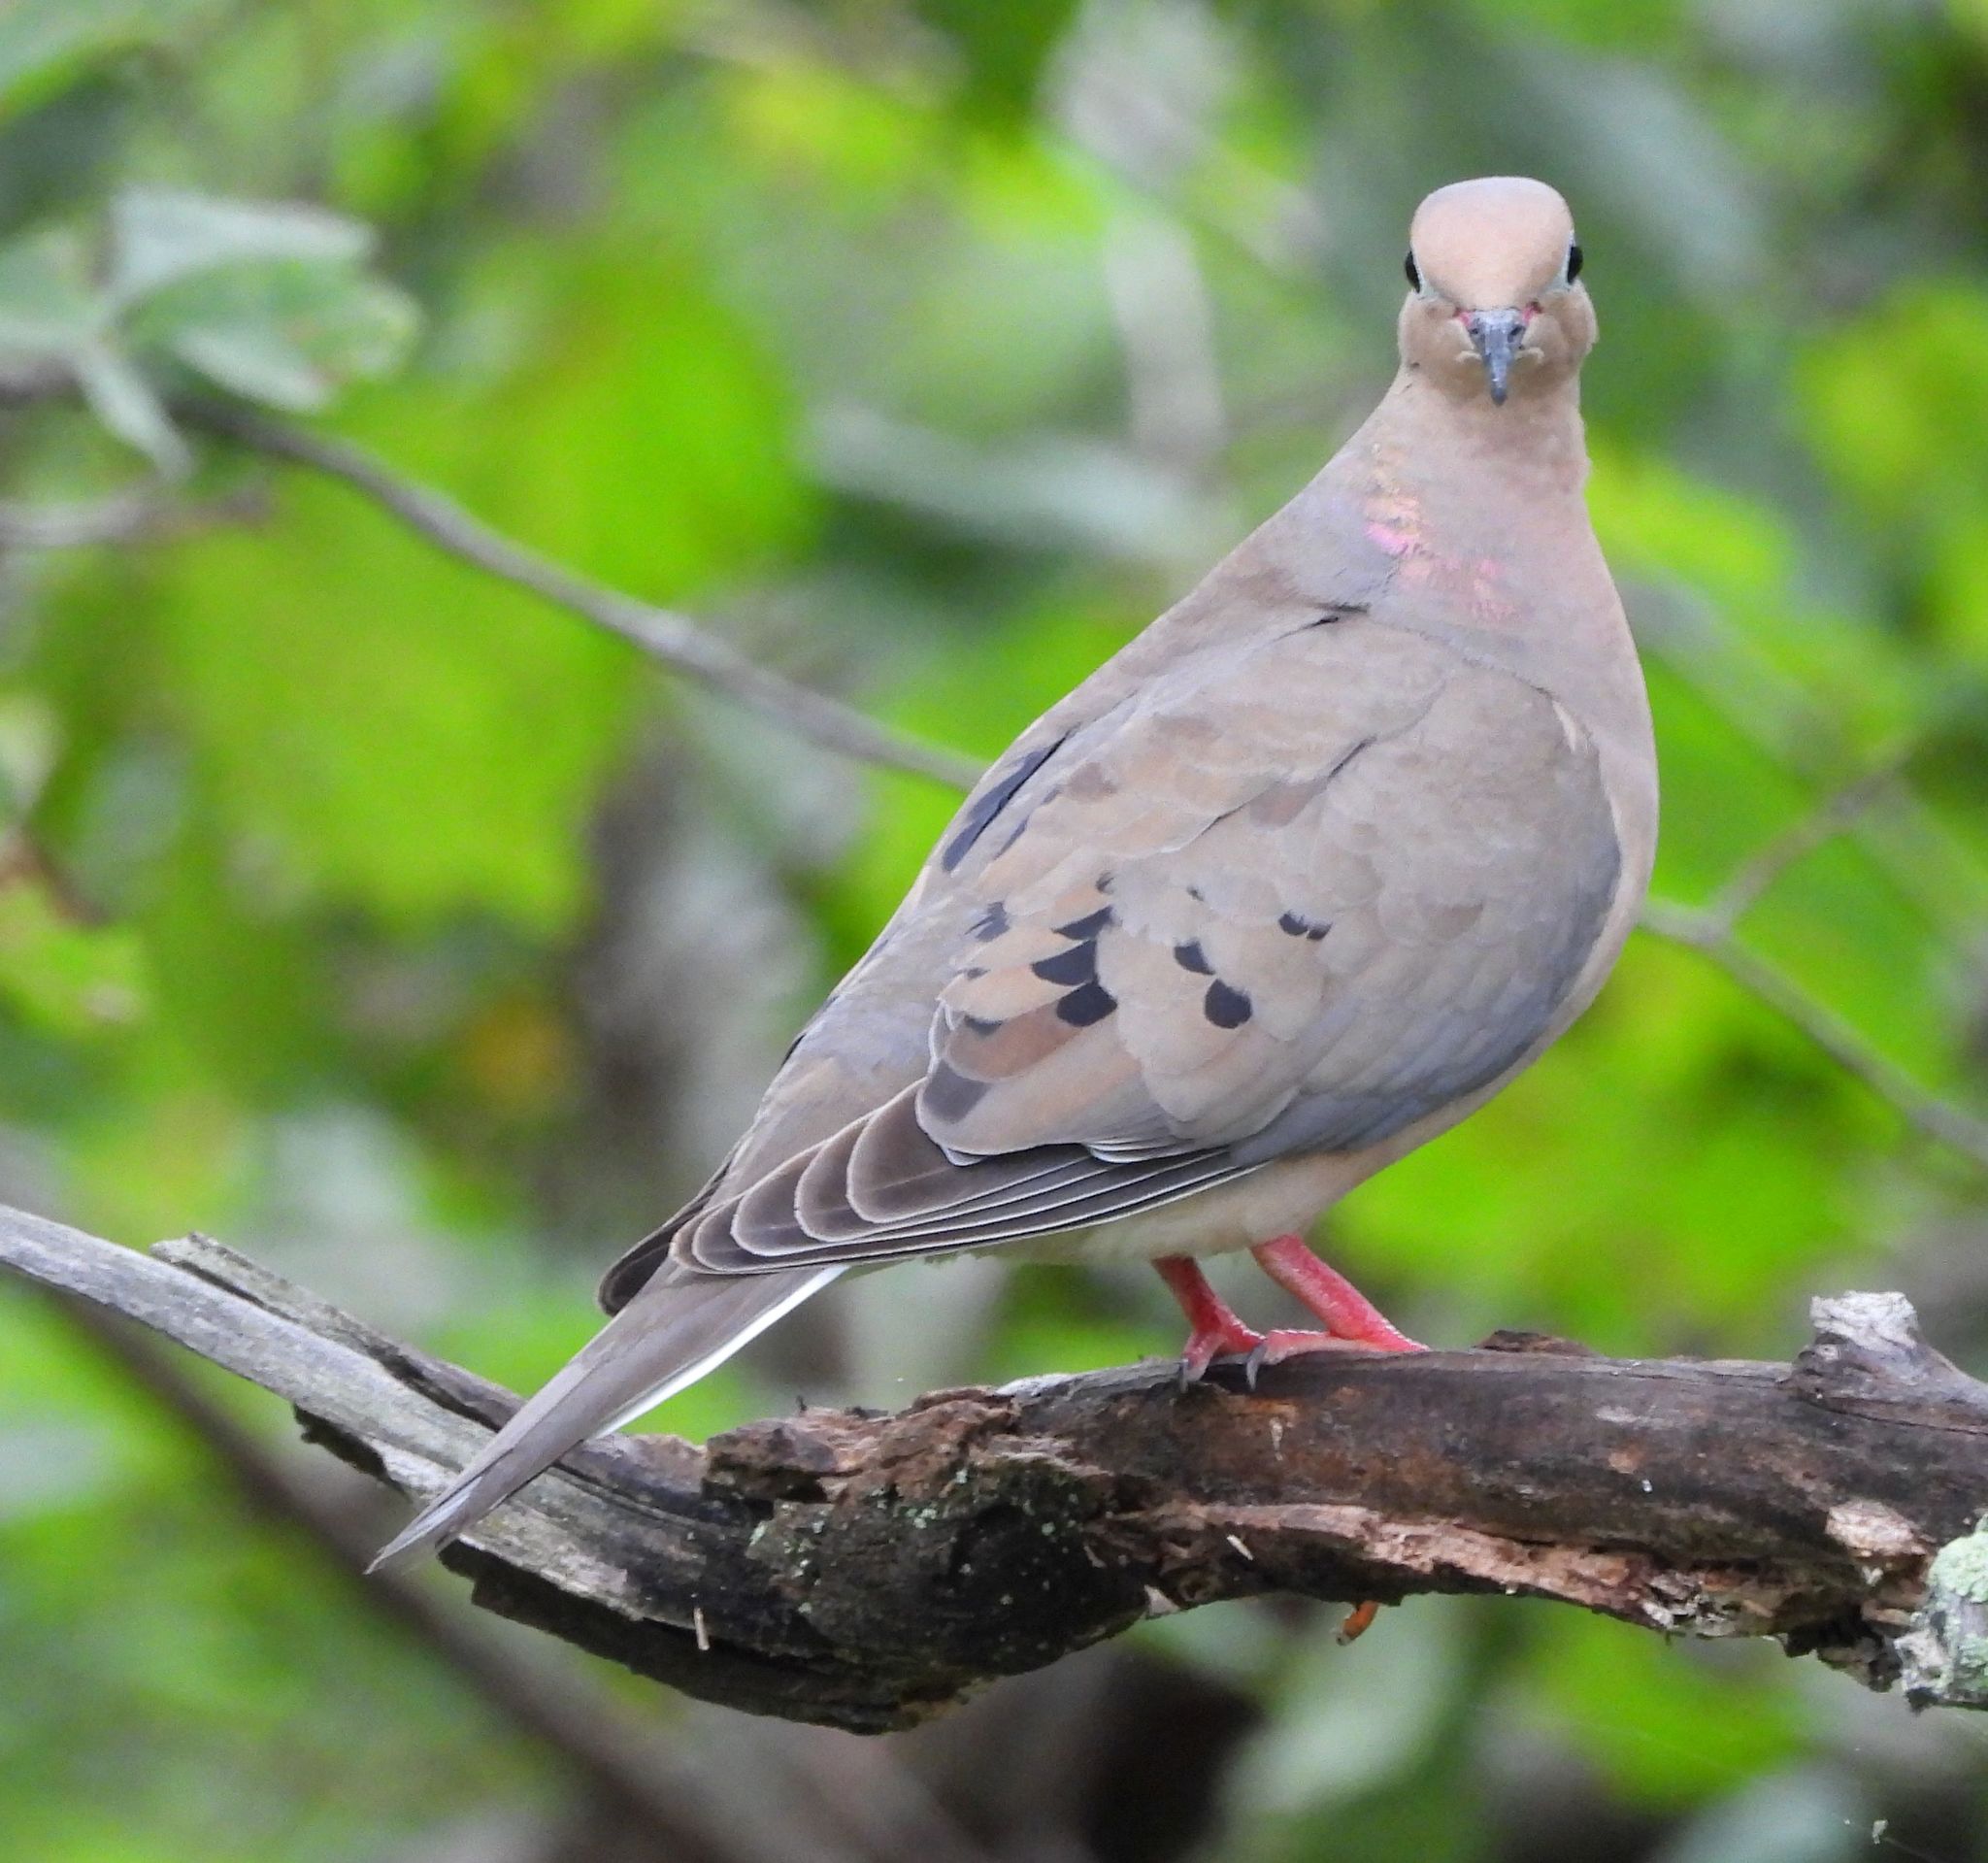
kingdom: Animalia
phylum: Chordata
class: Aves
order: Columbiformes
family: Columbidae
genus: Zenaida
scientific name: Zenaida macroura
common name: Mourning dove
